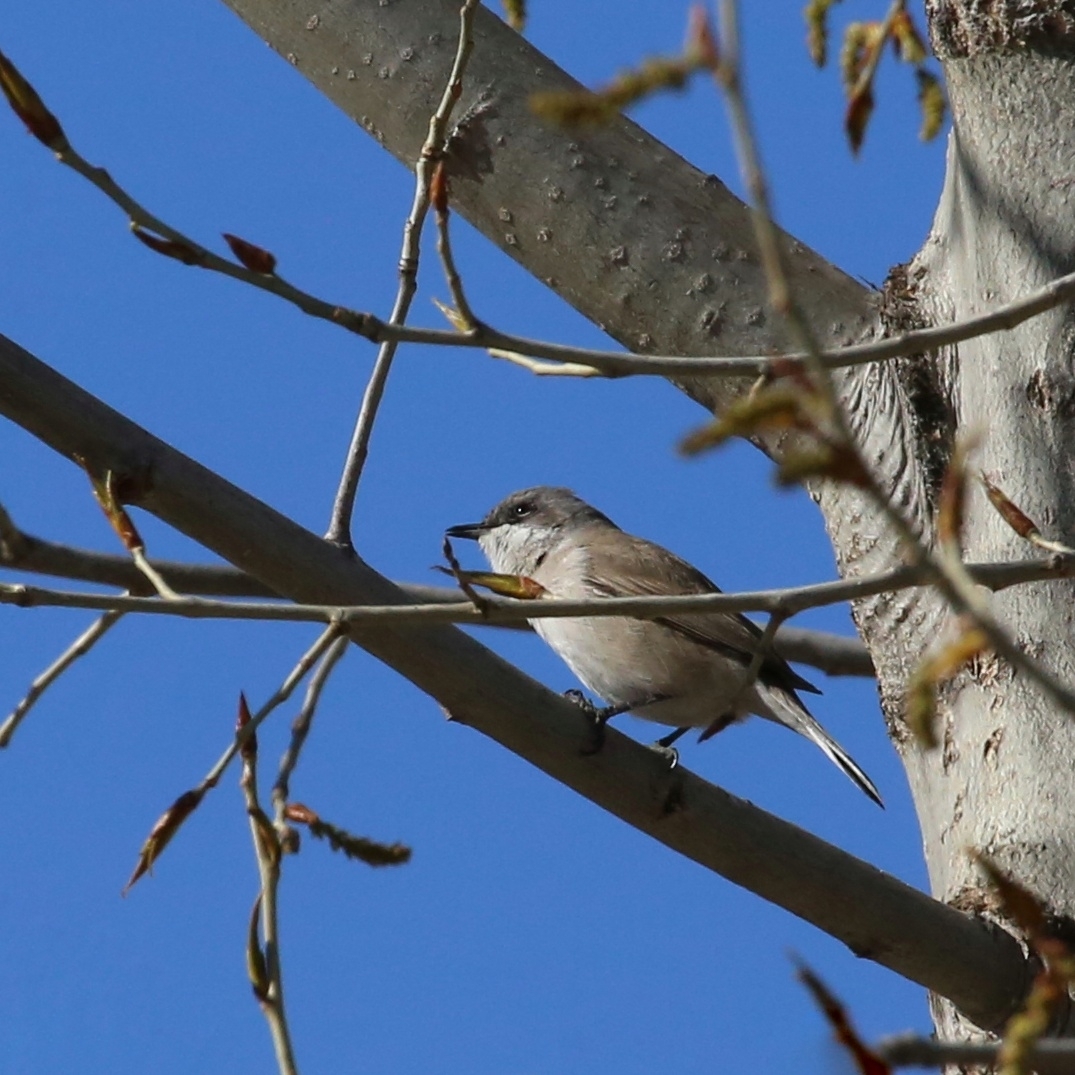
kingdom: Animalia
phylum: Chordata
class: Aves
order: Passeriformes
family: Sylviidae
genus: Sylvia
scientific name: Sylvia curruca
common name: Lesser whitethroat
